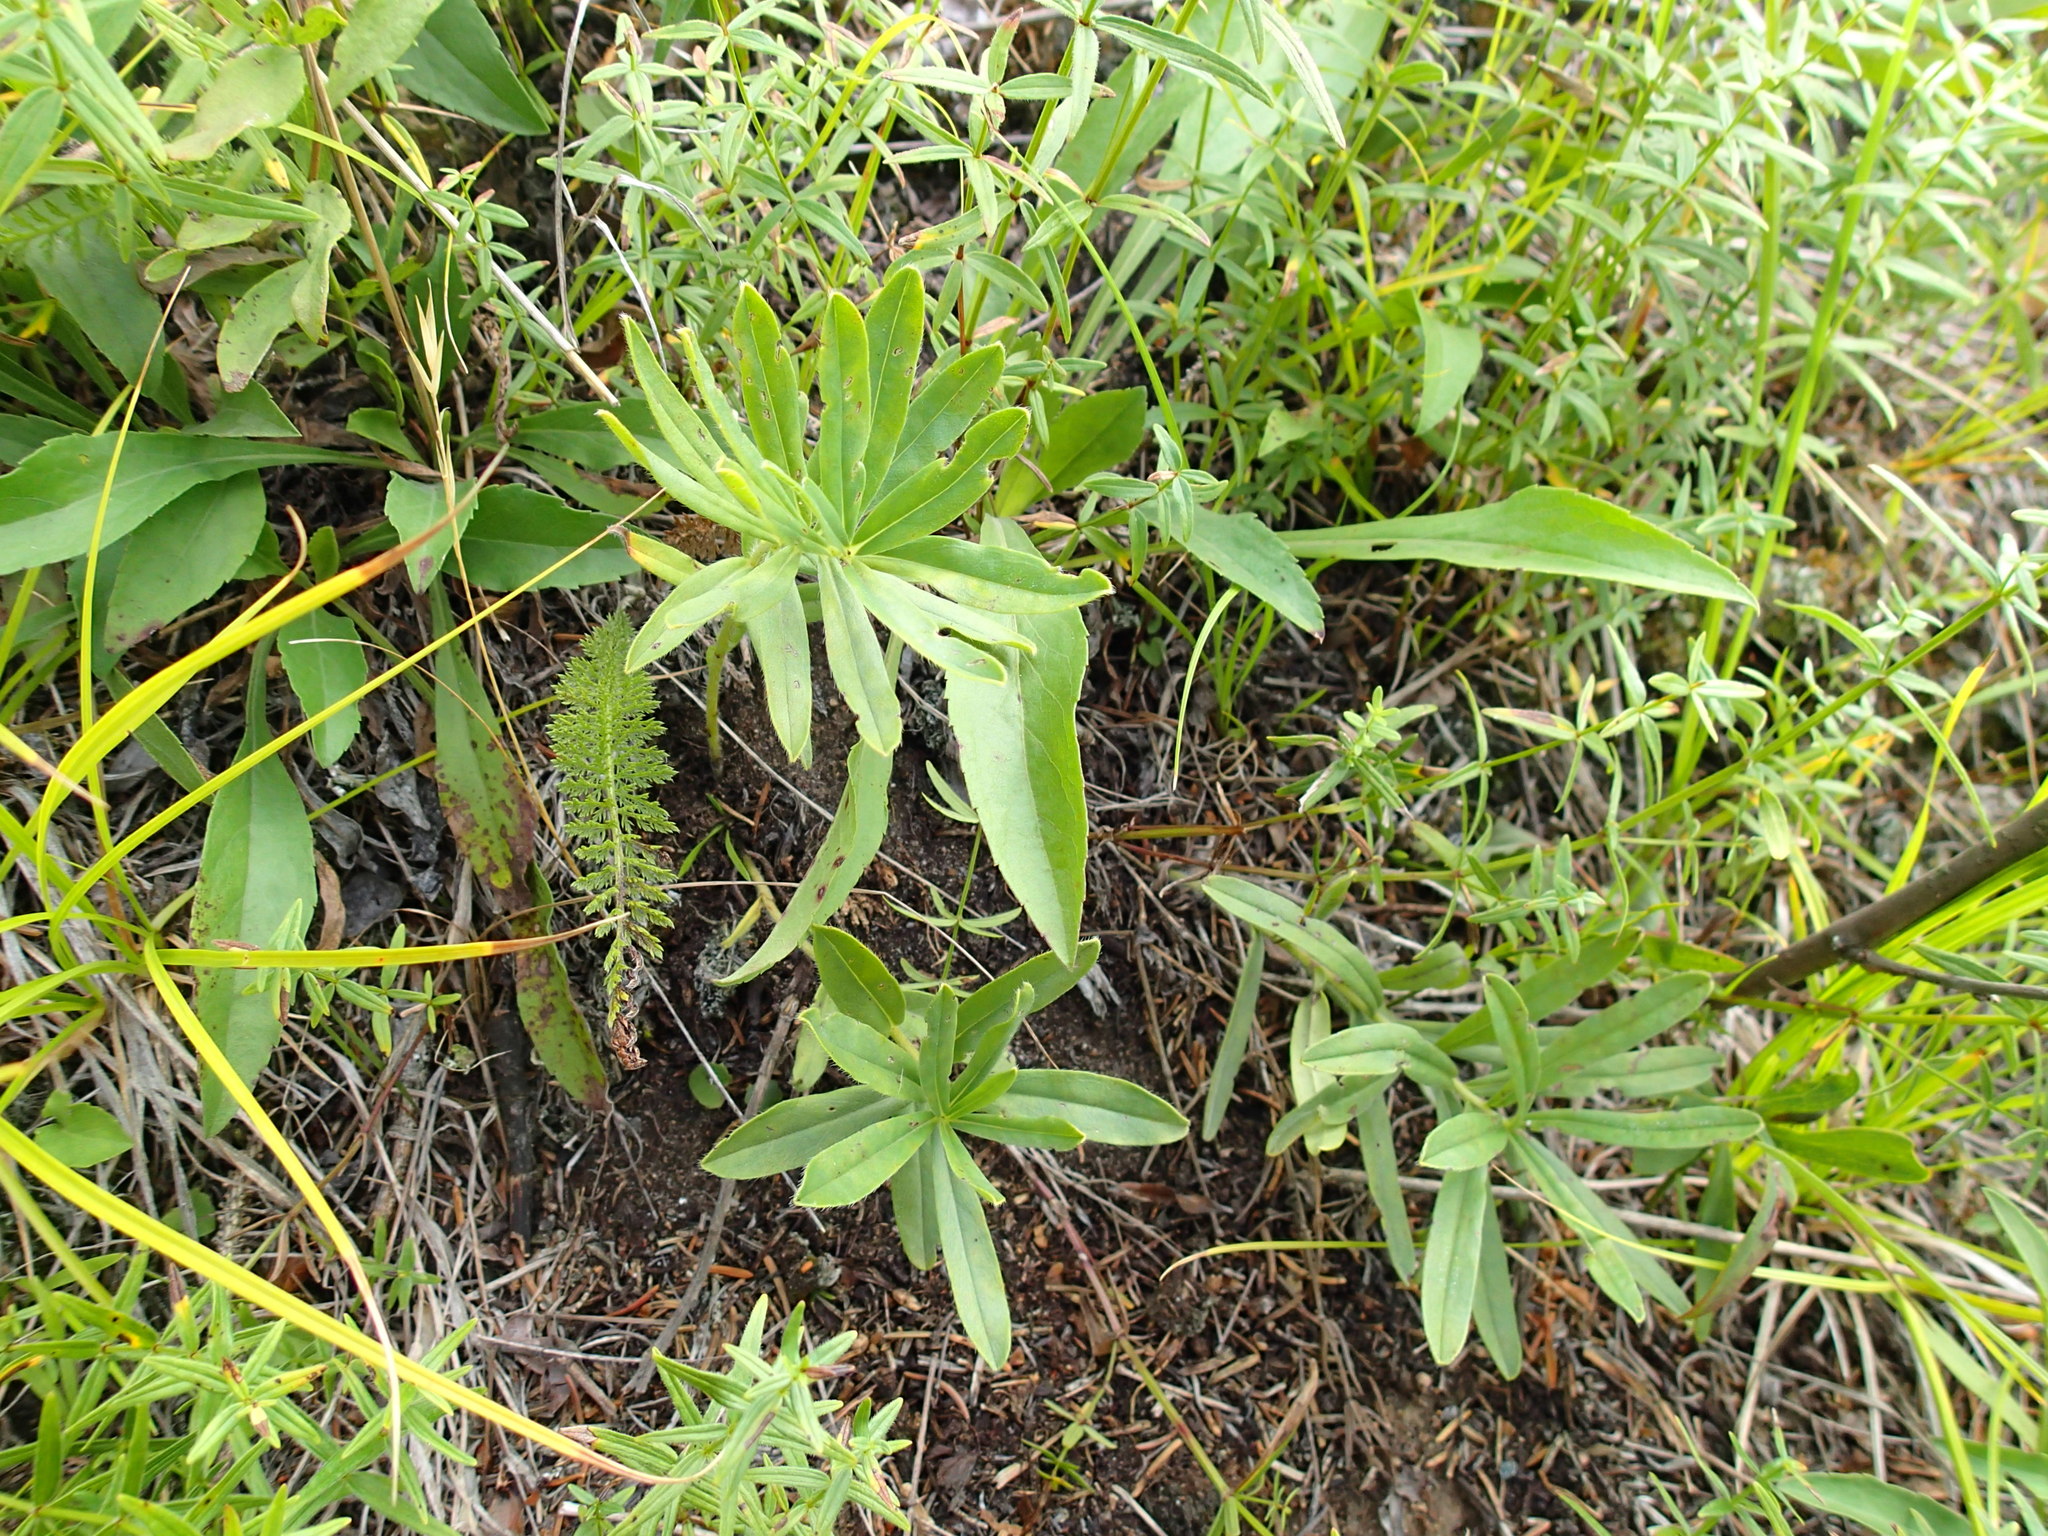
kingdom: Plantae
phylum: Tracheophyta
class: Magnoliopsida
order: Boraginales
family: Boraginaceae
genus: Lithospermum
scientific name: Lithospermum canescens
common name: Hoary puccoon
